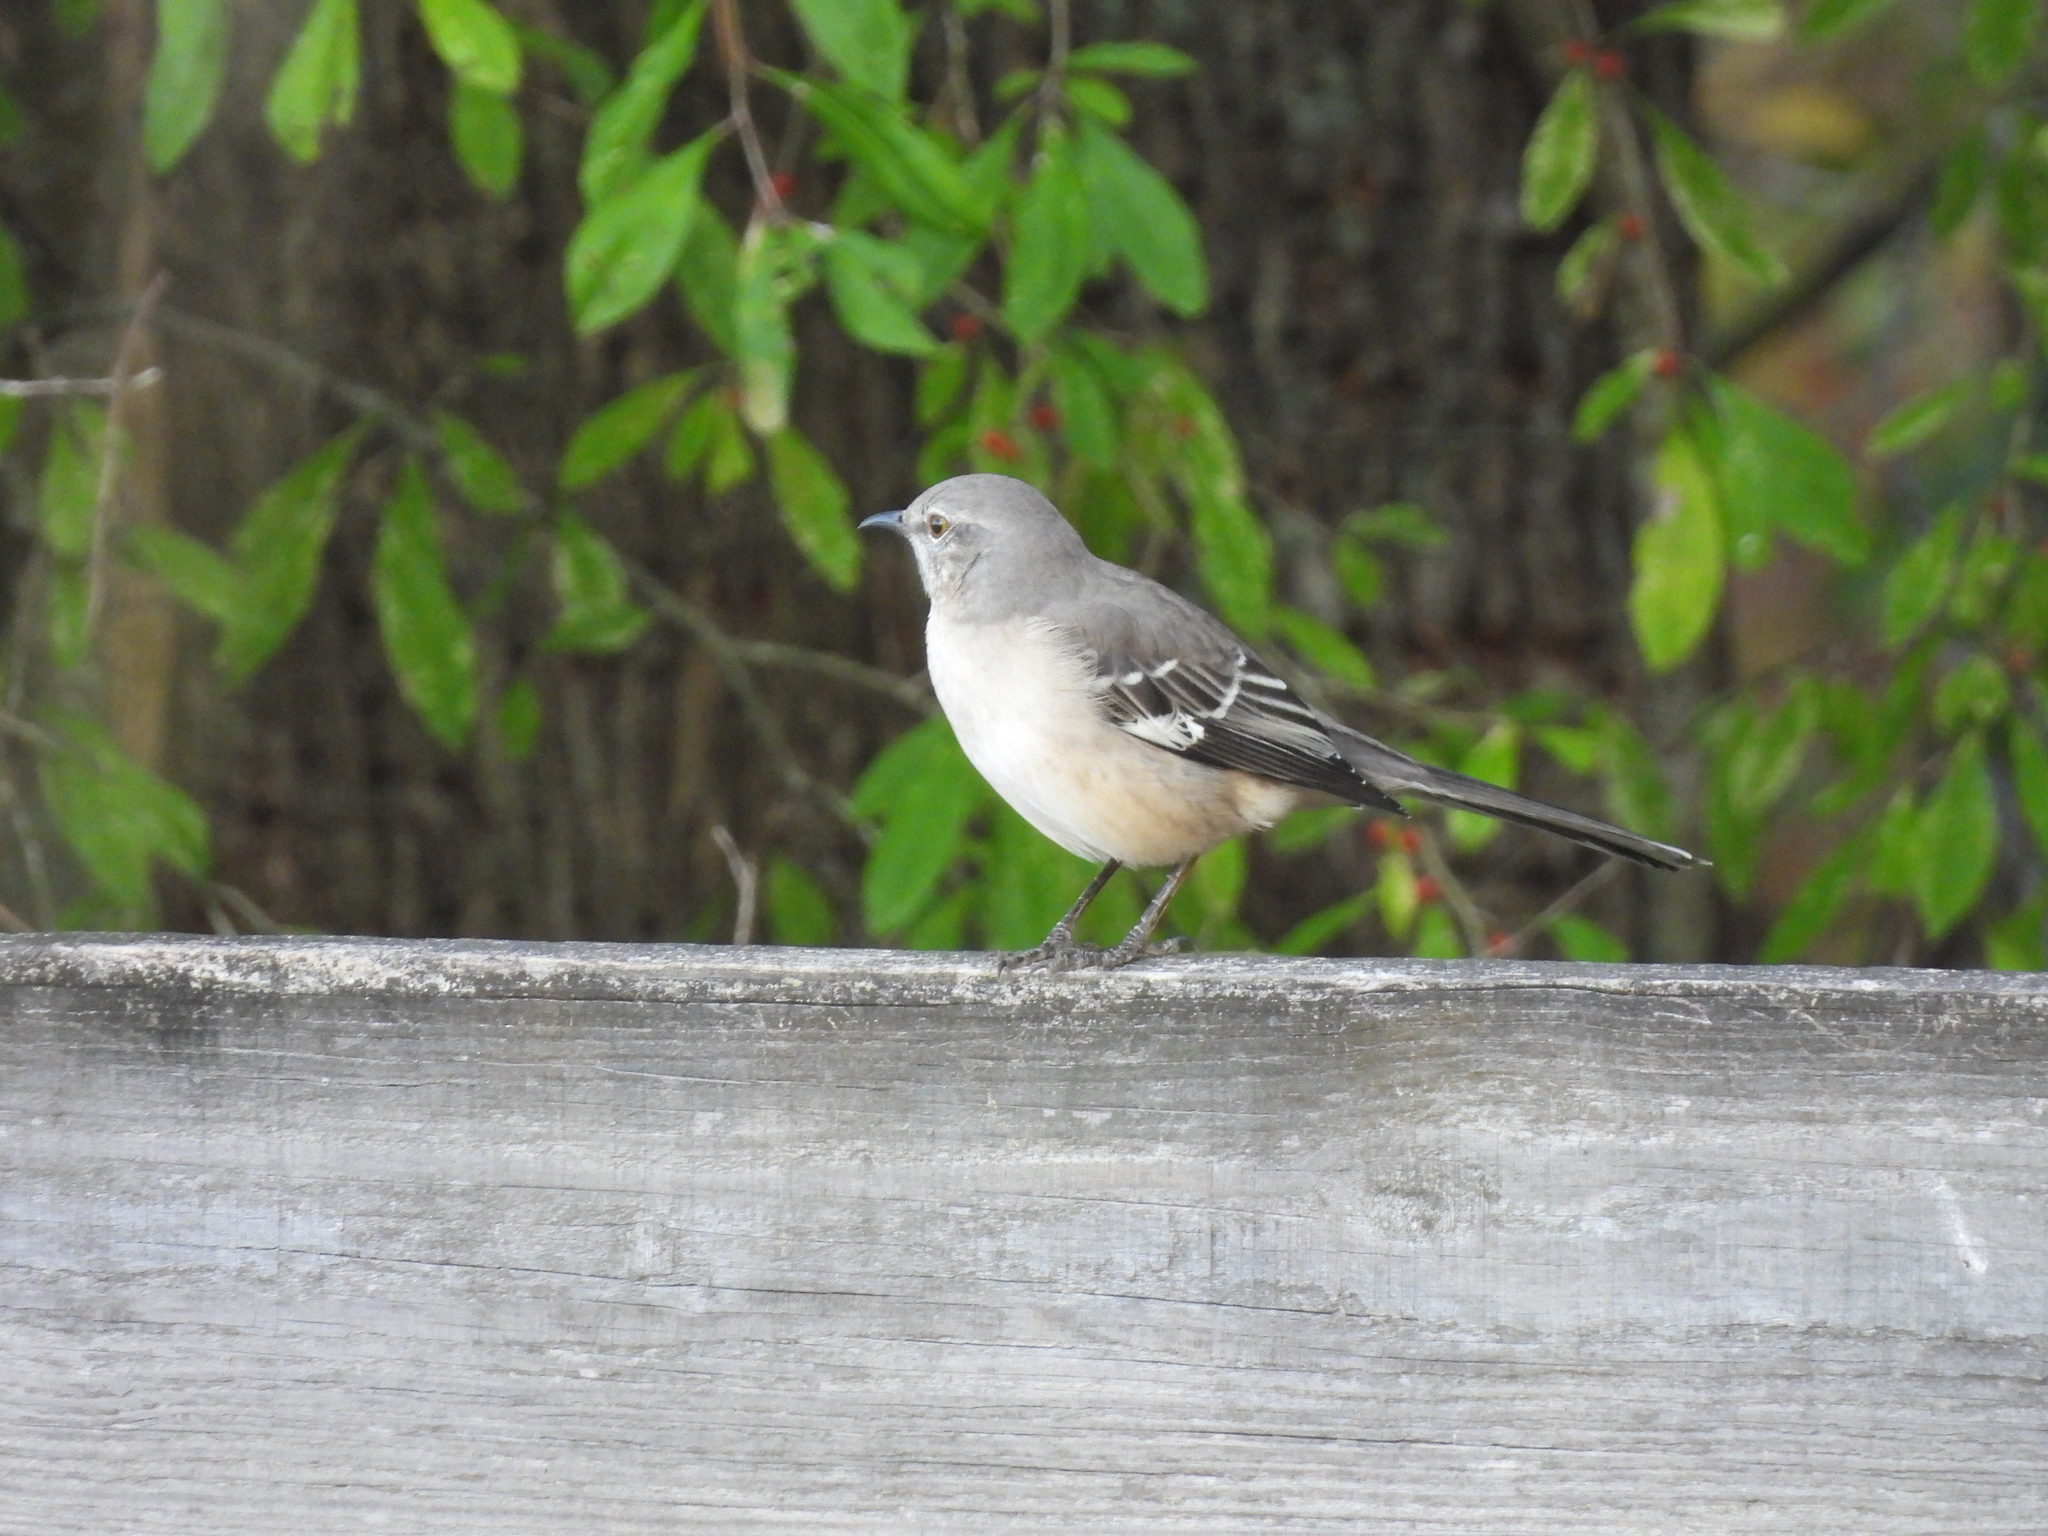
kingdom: Animalia
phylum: Chordata
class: Aves
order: Passeriformes
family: Mimidae
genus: Mimus
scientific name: Mimus polyglottos
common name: Northern mockingbird
